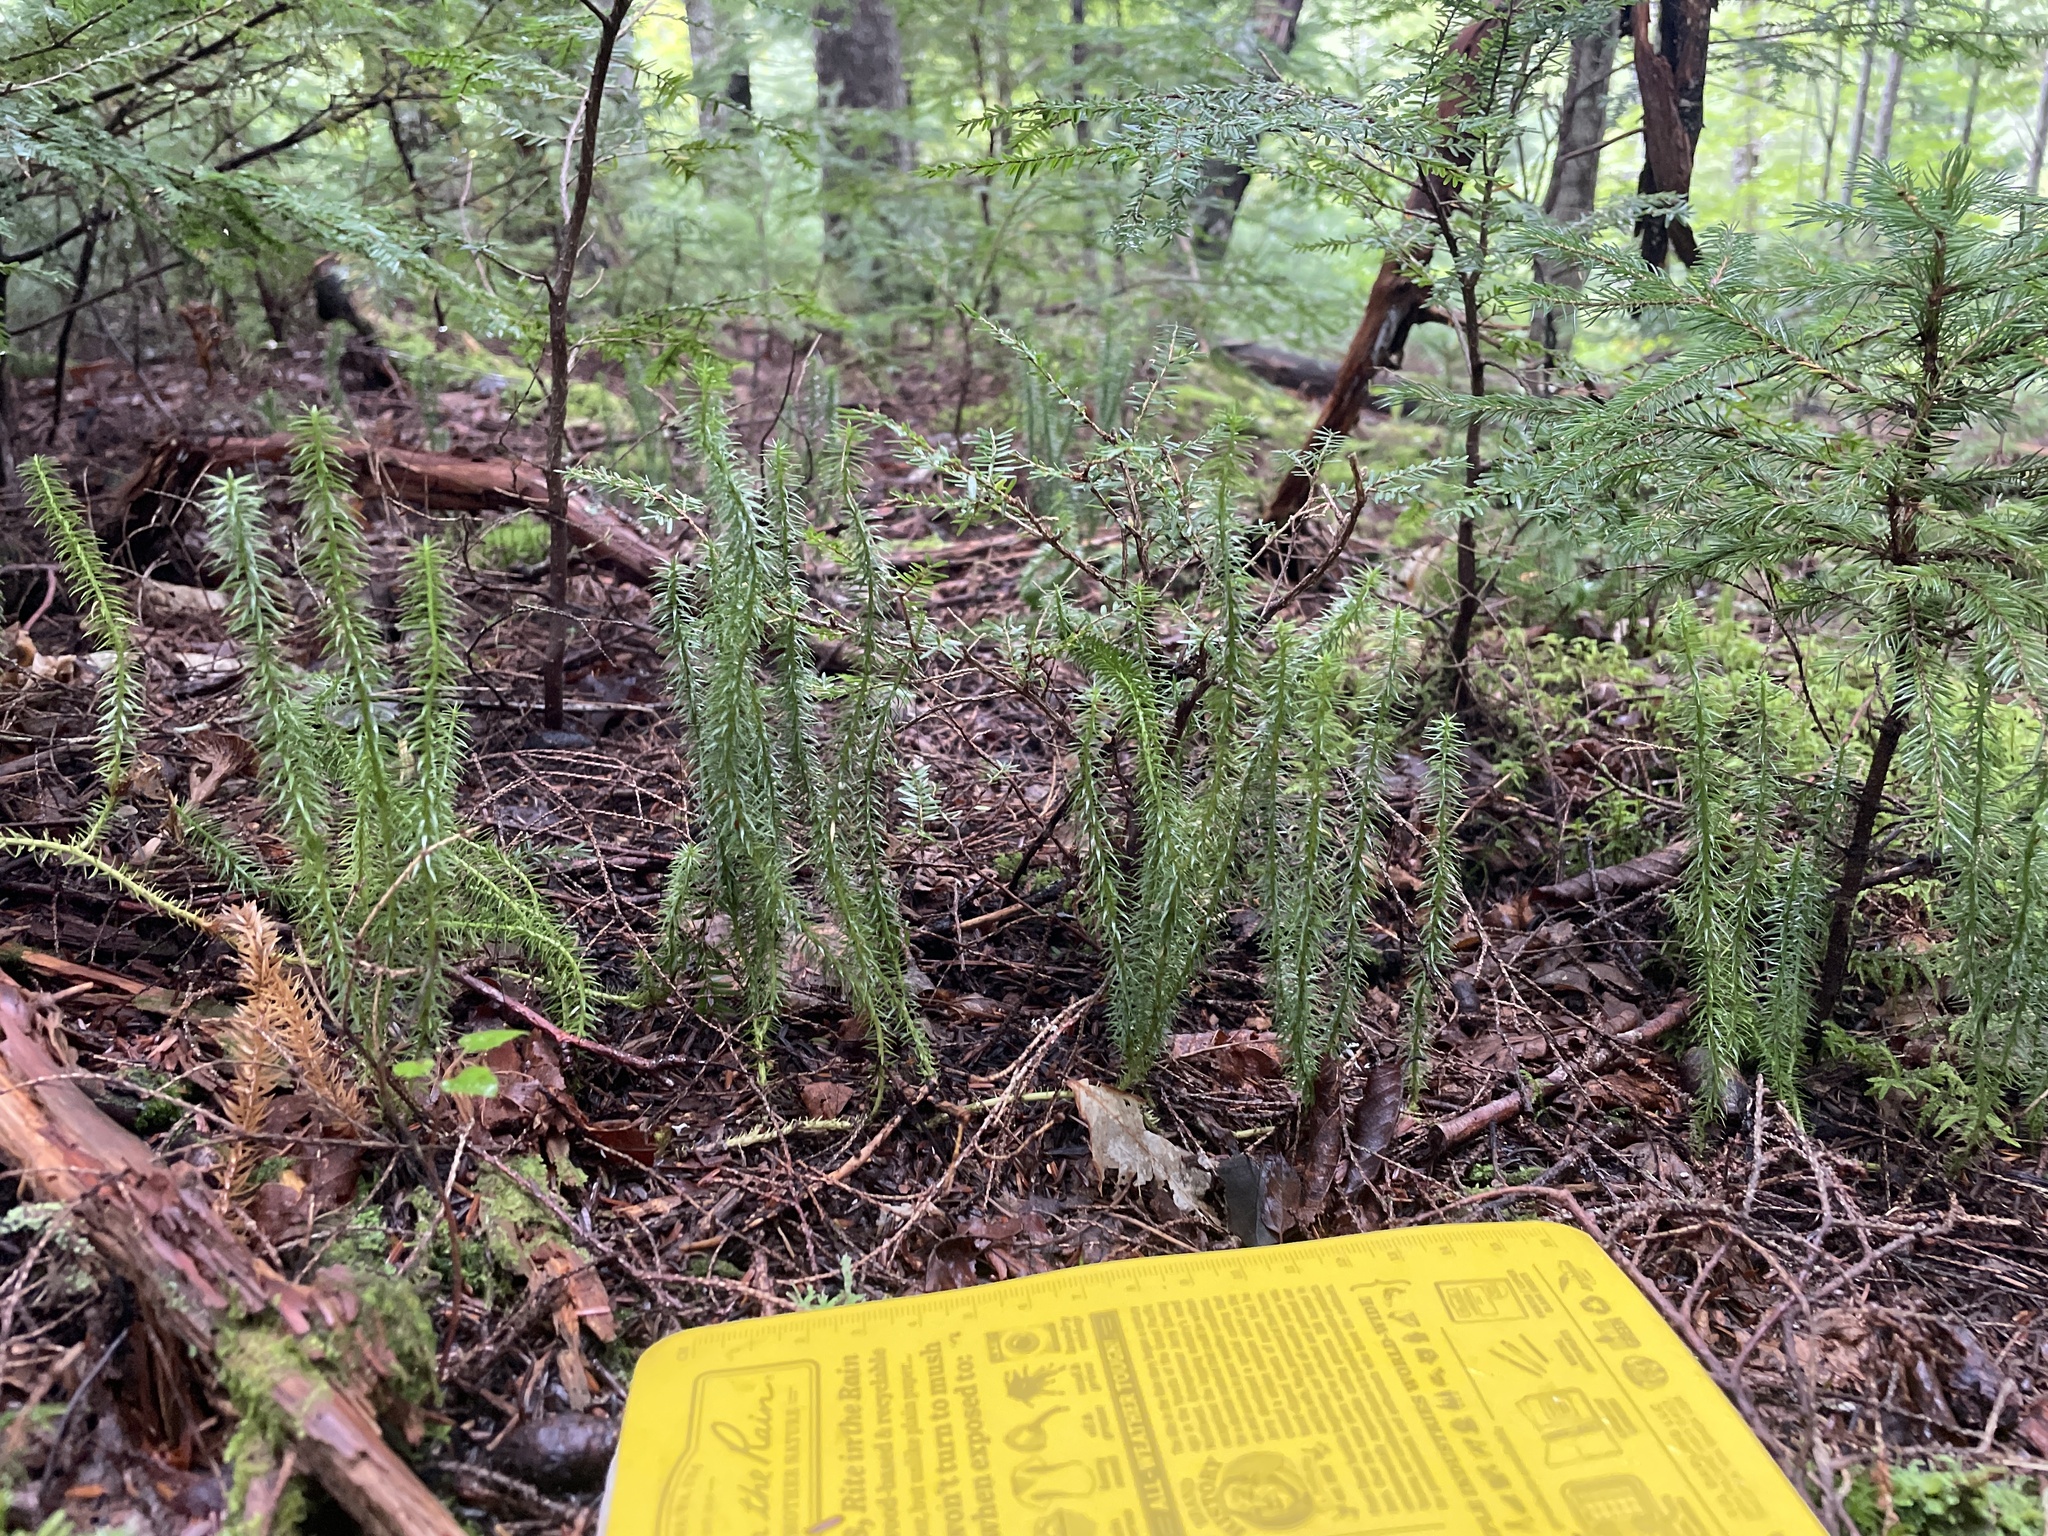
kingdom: Plantae
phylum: Tracheophyta
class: Lycopodiopsida
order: Lycopodiales
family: Lycopodiaceae
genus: Spinulum
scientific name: Spinulum annotinum
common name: Interrupted club-moss
